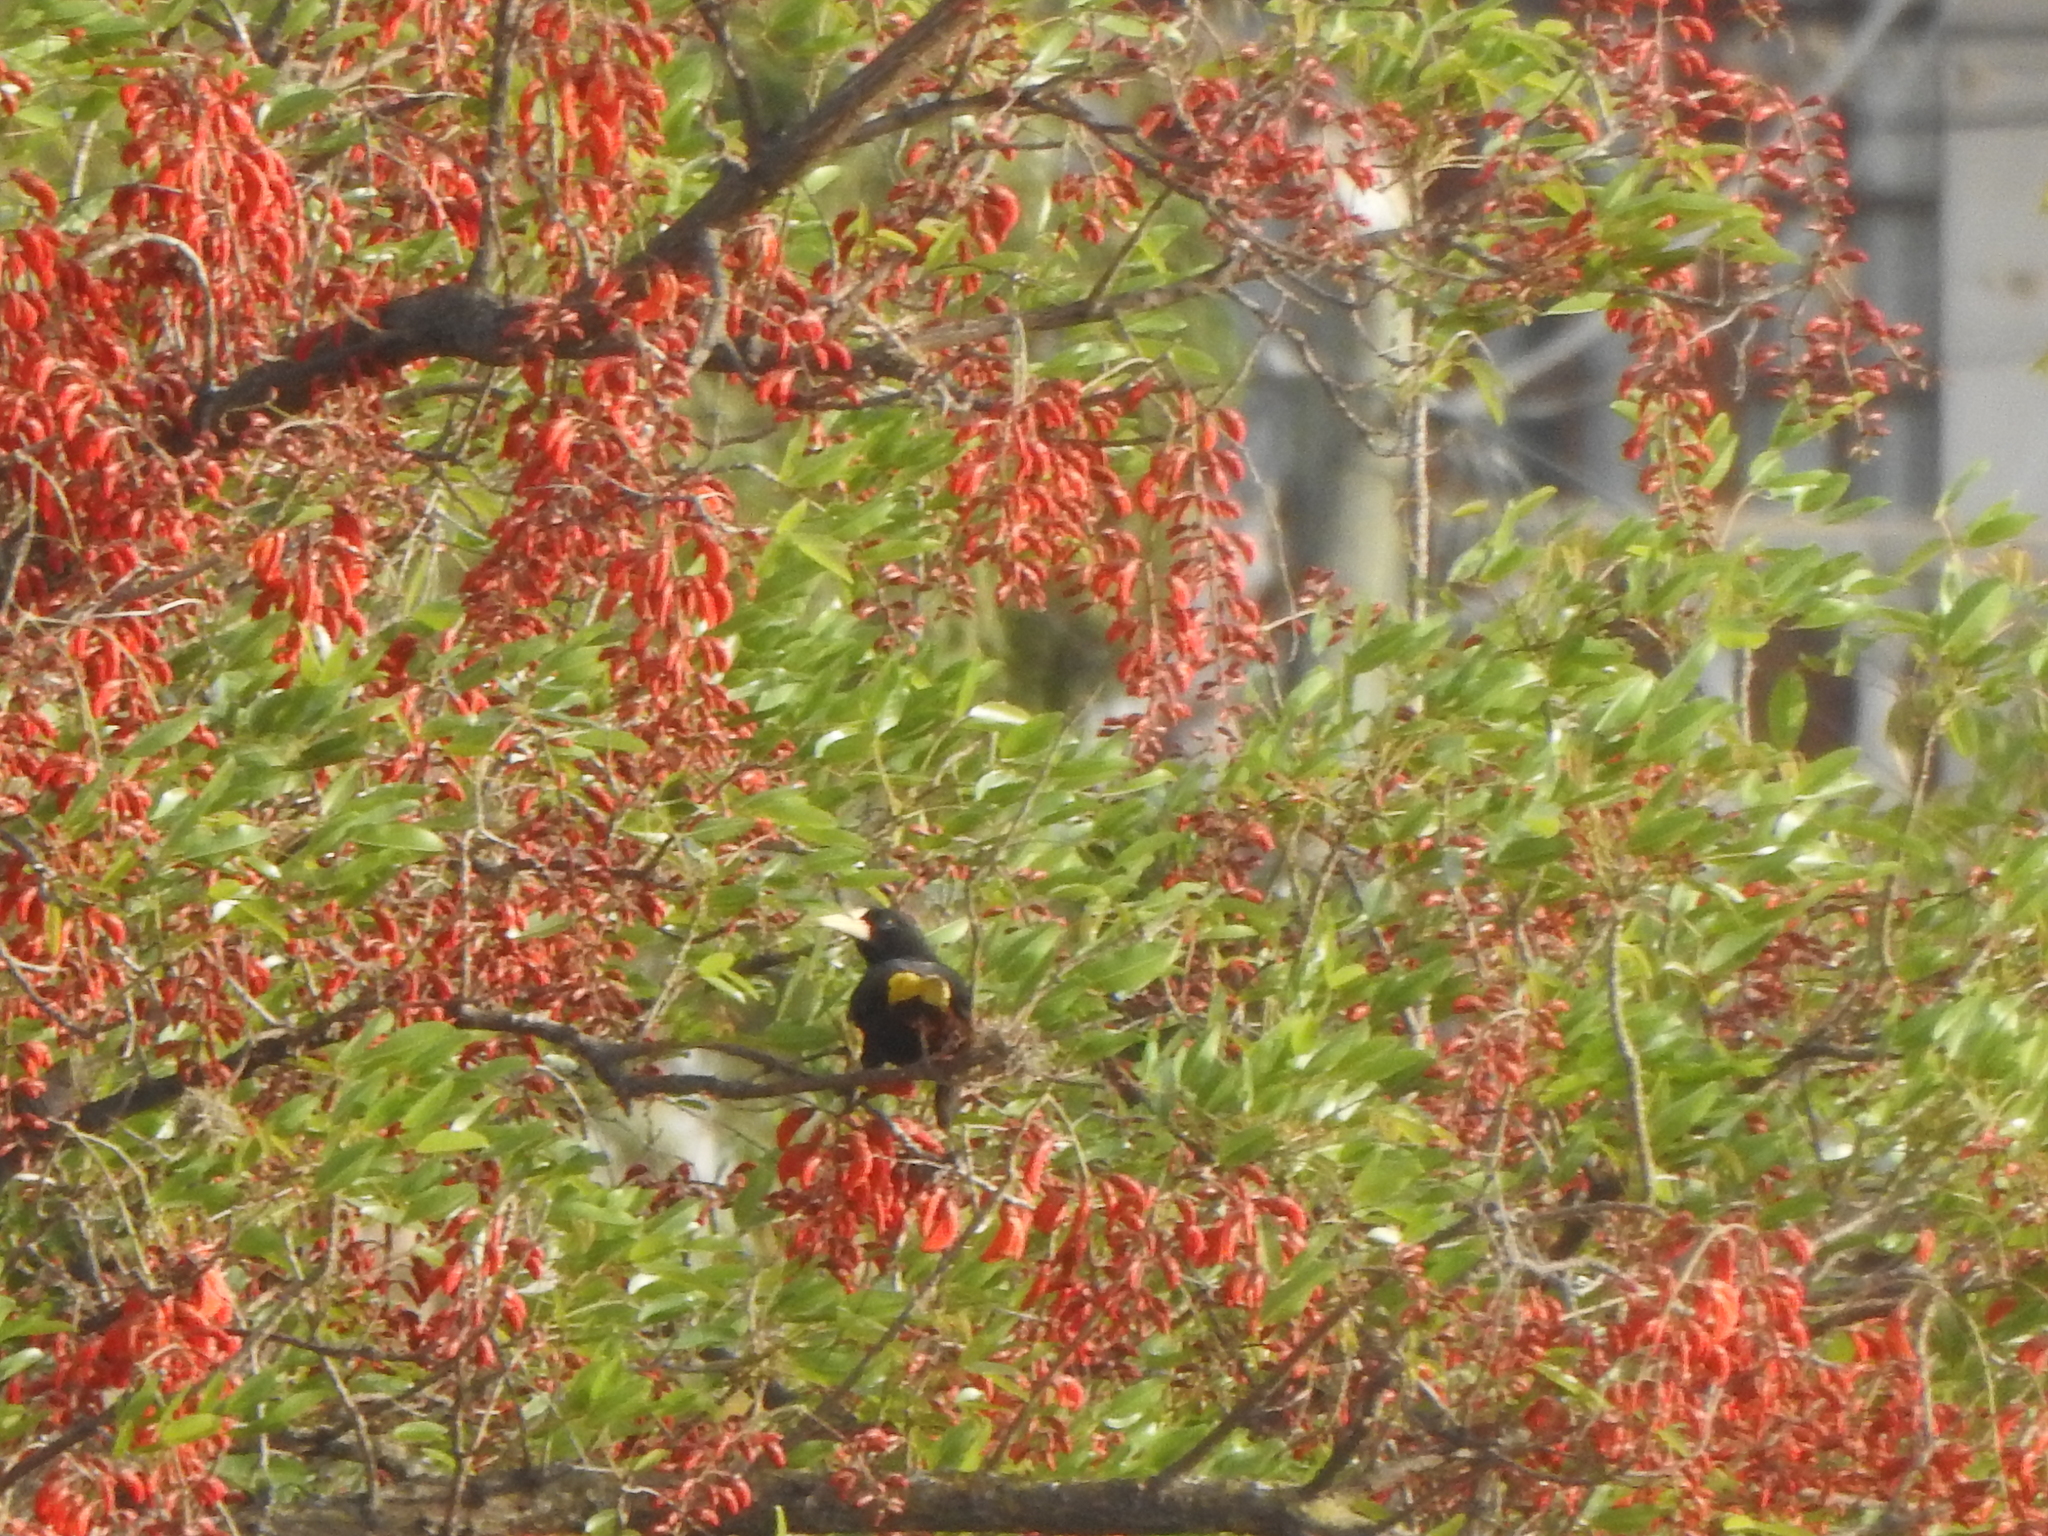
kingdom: Animalia
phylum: Chordata
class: Aves
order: Passeriformes
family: Icteridae
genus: Psarocolius
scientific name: Psarocolius decumanus
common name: Crested oropendola
